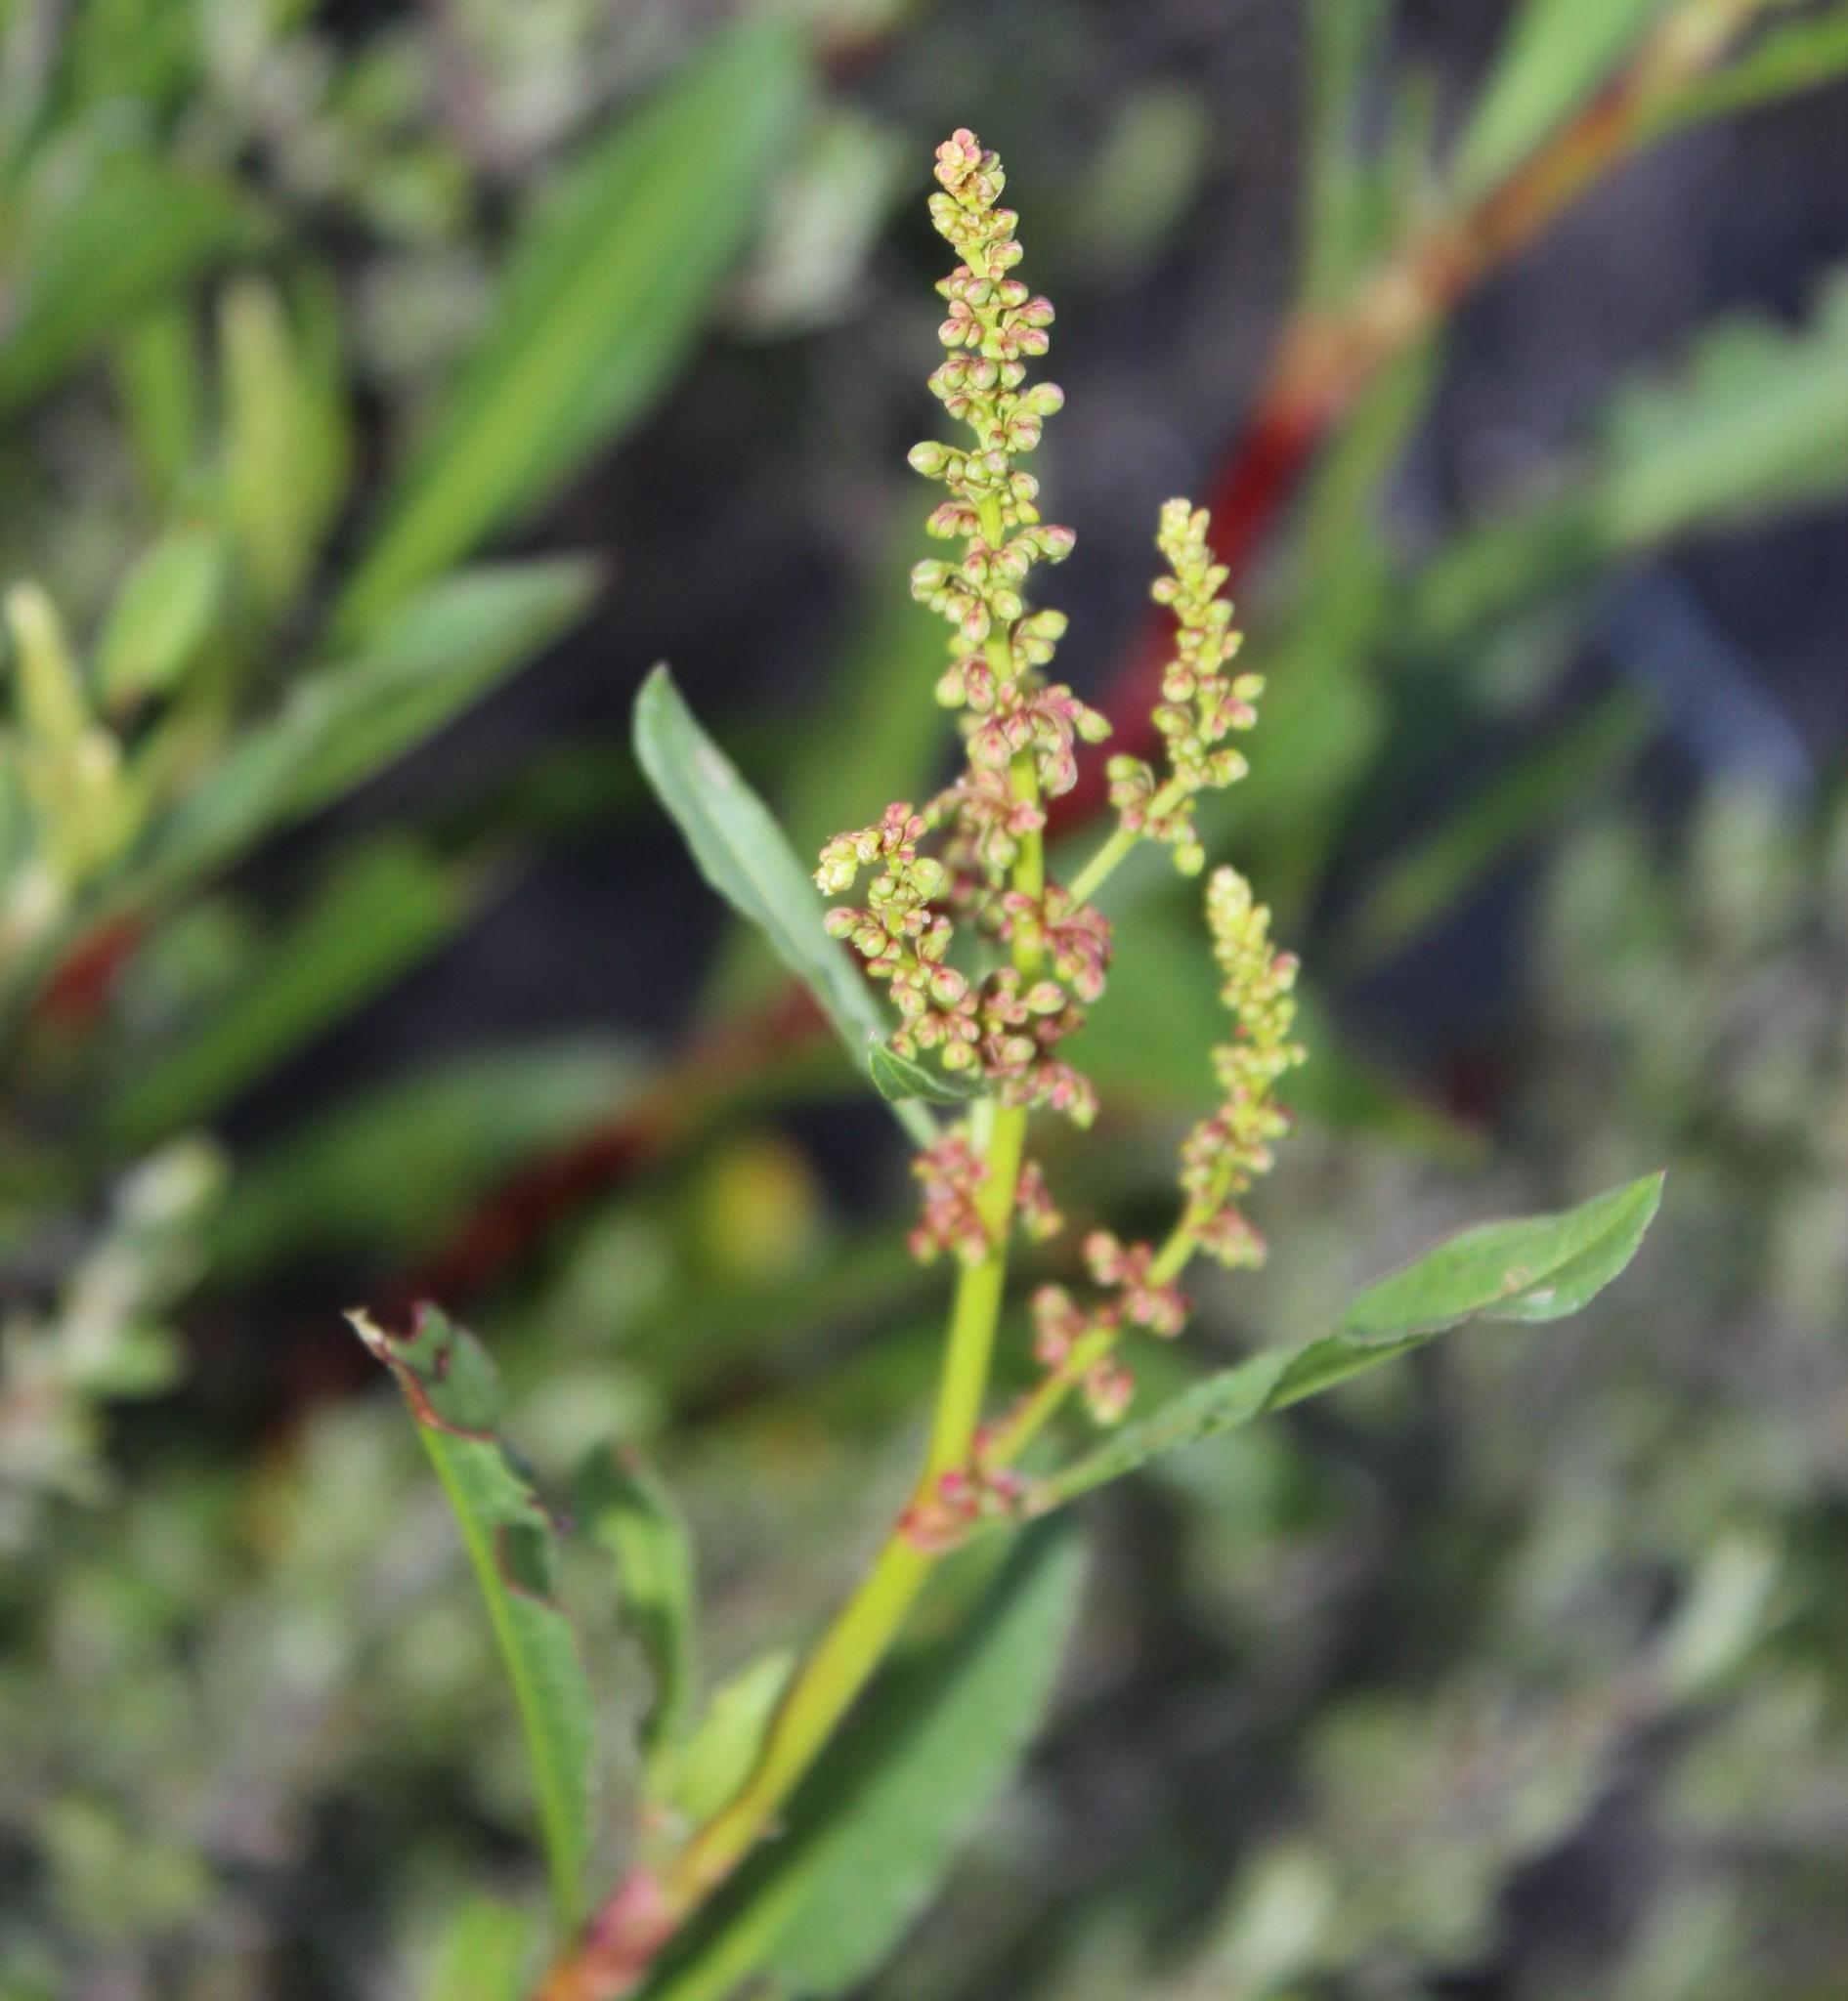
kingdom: Plantae
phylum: Tracheophyta
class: Magnoliopsida
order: Caryophyllales
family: Polygonaceae
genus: Rumex
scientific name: Rumex lanceolatus
